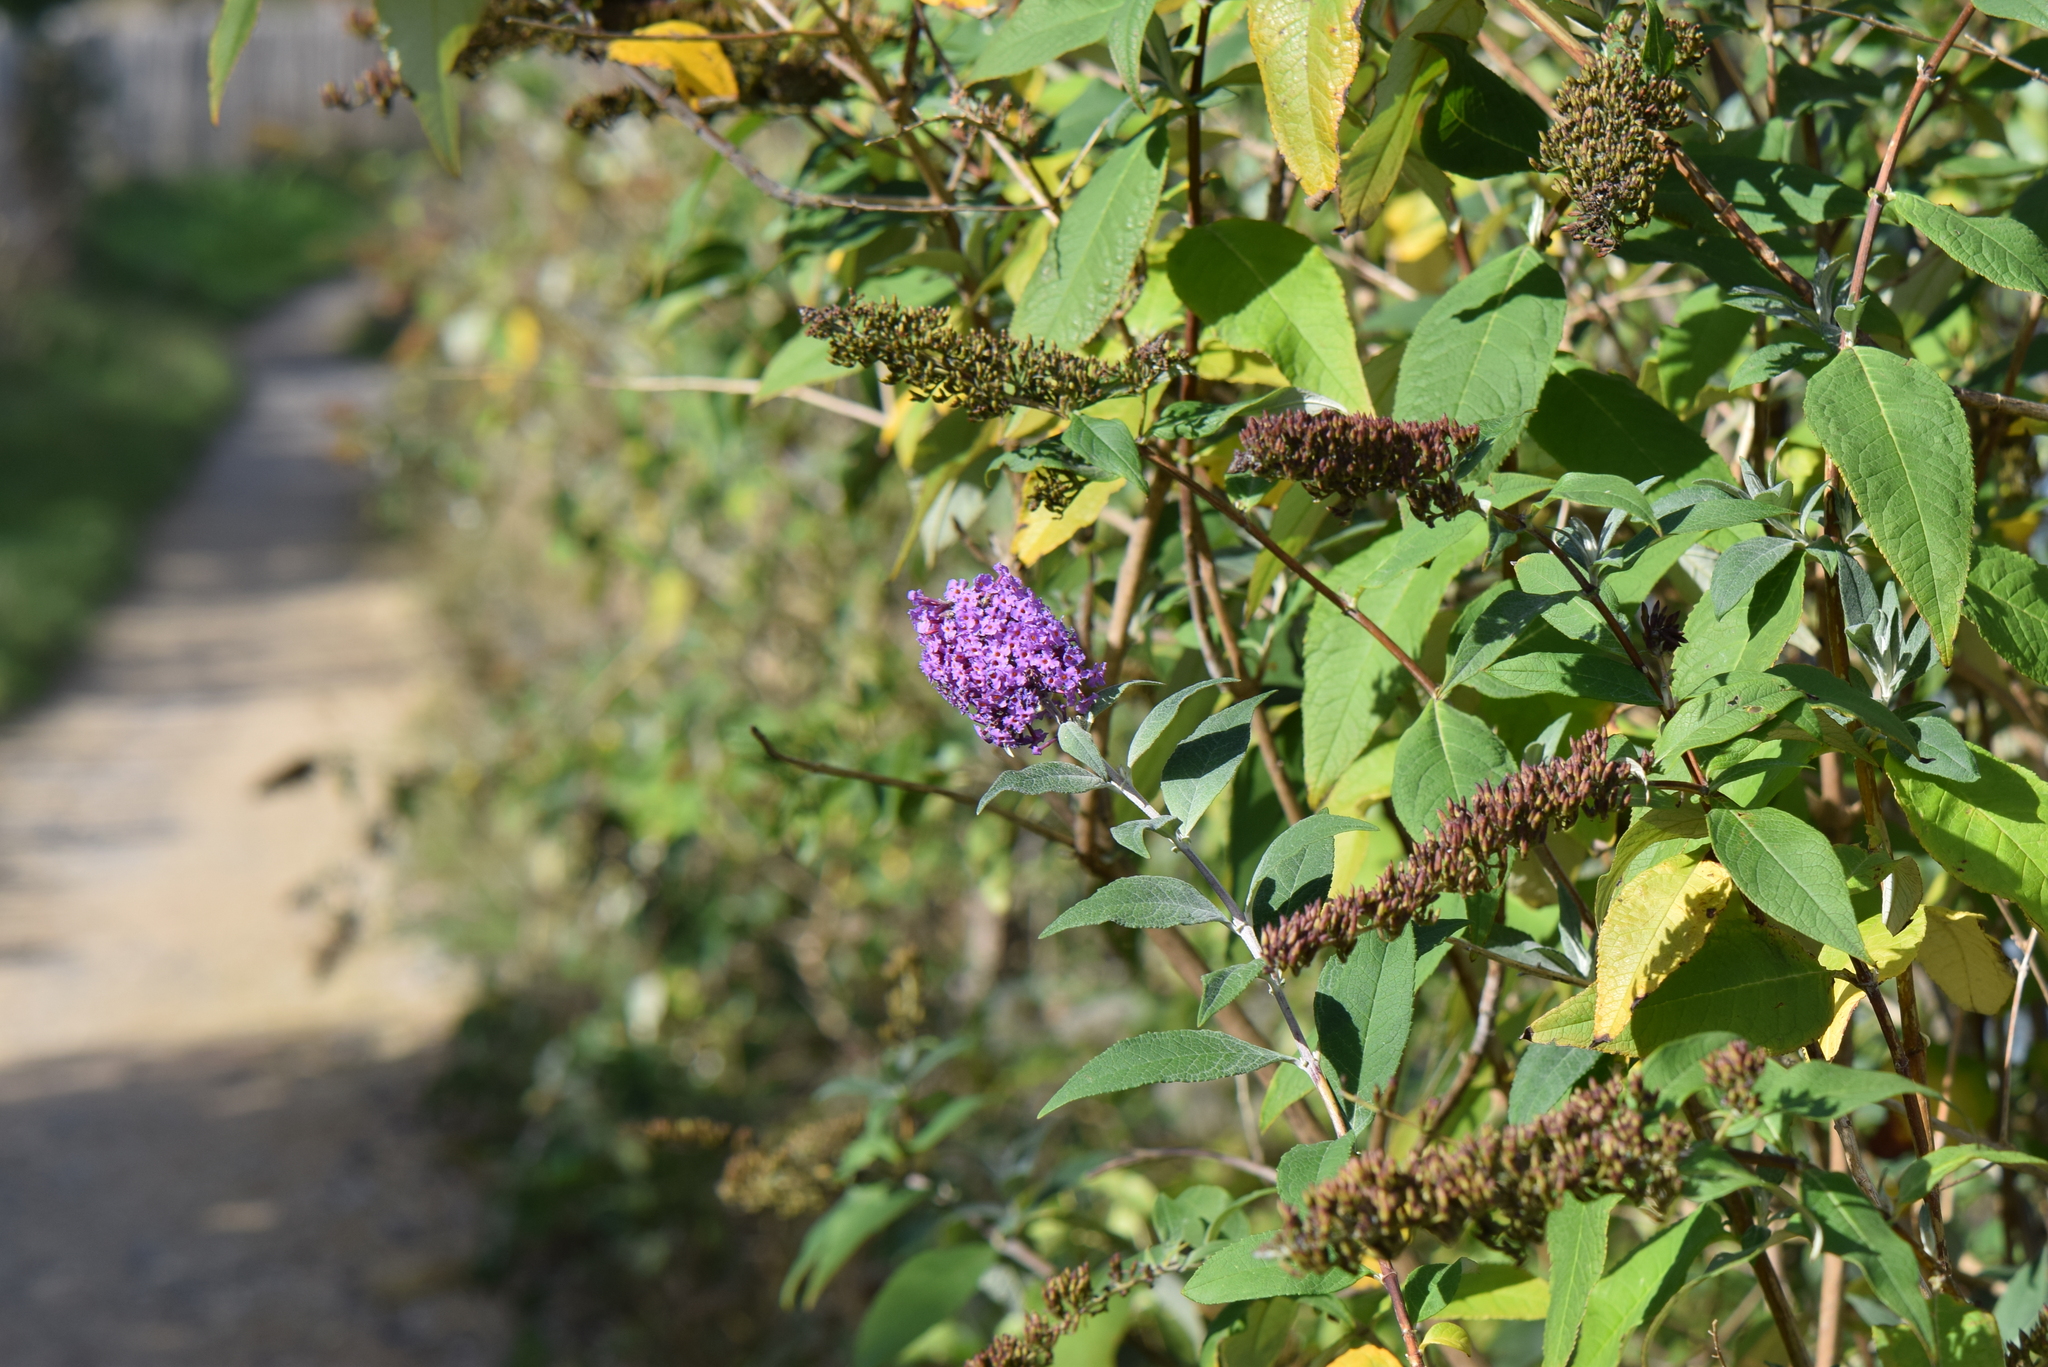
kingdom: Plantae
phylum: Tracheophyta
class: Magnoliopsida
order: Lamiales
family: Scrophulariaceae
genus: Buddleja
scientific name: Buddleja davidii
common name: Butterfly-bush
